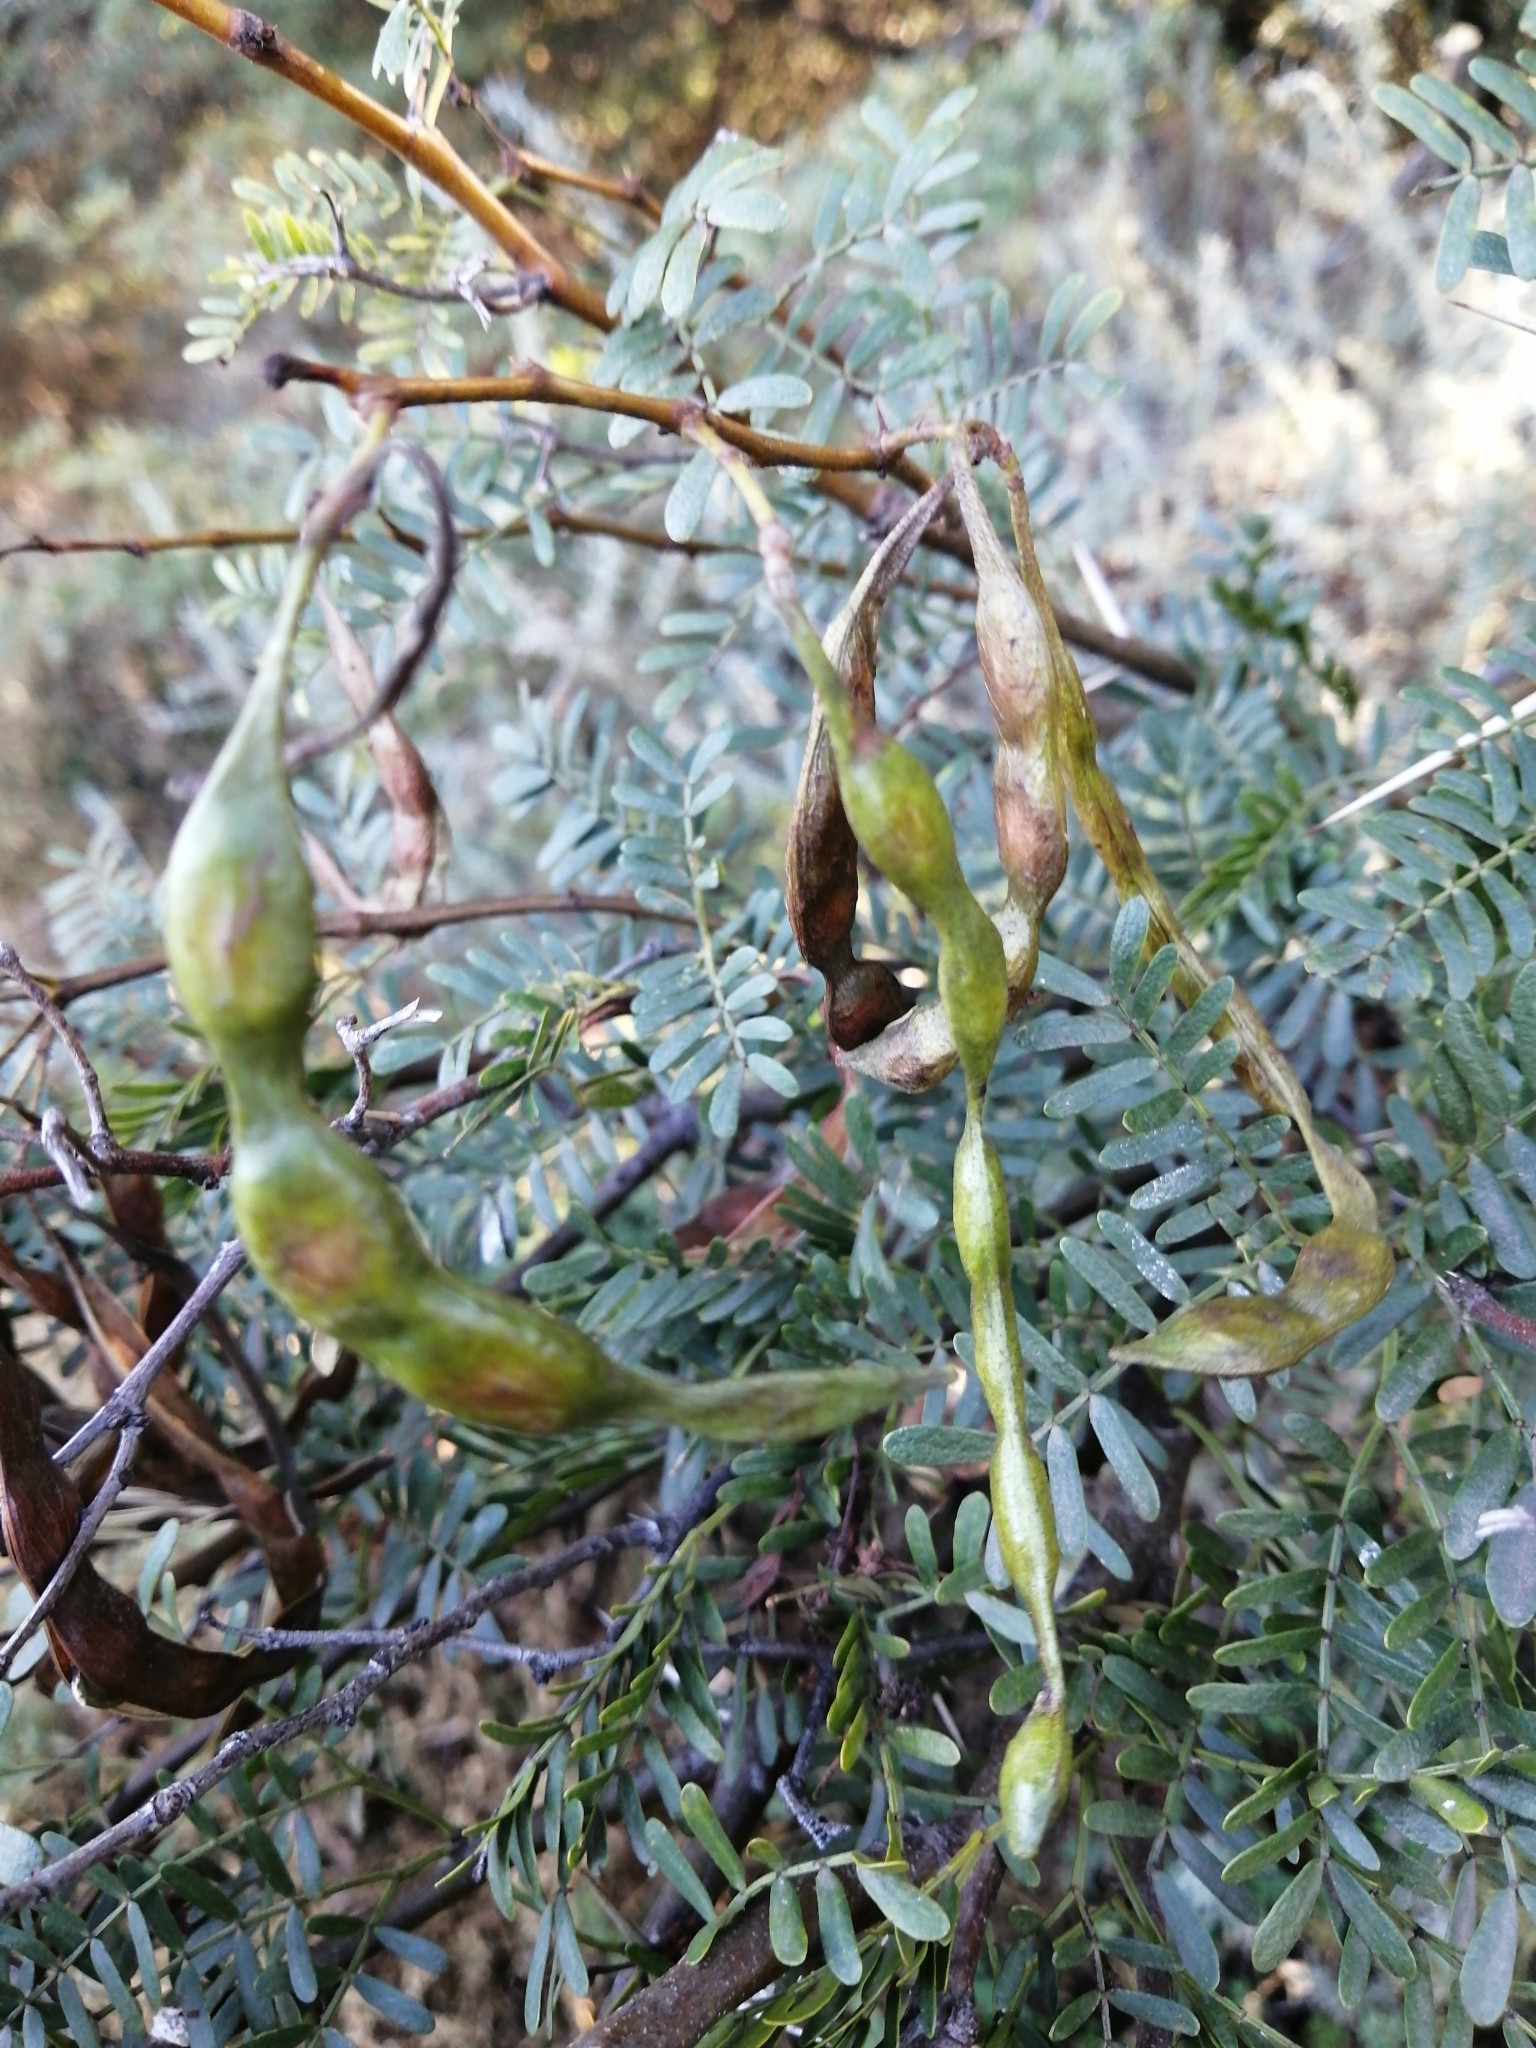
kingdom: Plantae
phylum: Tracheophyta
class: Magnoliopsida
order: Fabales
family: Fabaceae
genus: Vachellia
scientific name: Vachellia karroo
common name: Sweet thorn
